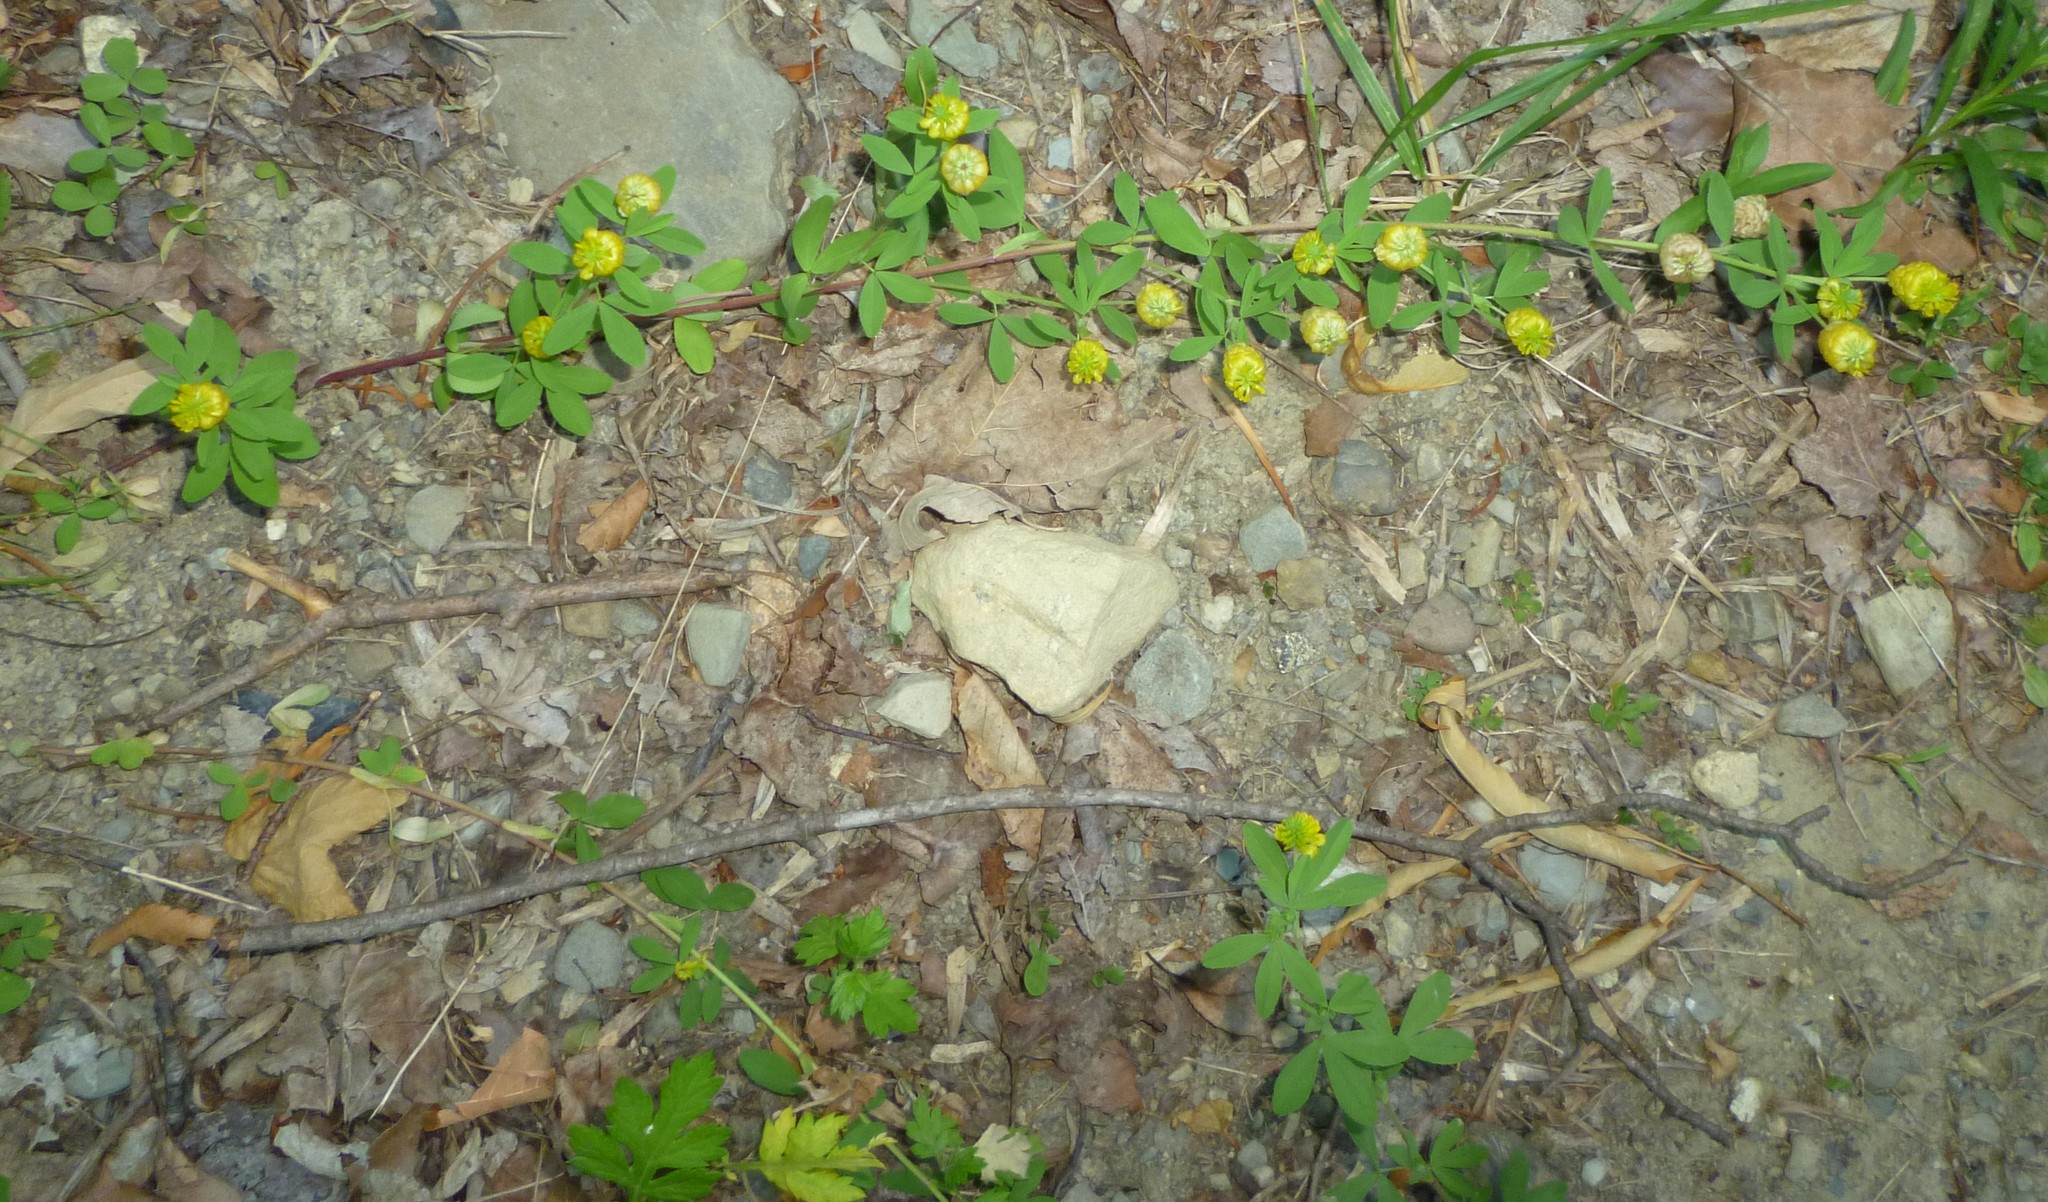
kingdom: Plantae
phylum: Tracheophyta
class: Magnoliopsida
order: Fabales
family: Fabaceae
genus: Trifolium
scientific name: Trifolium aureum
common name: Golden clover
